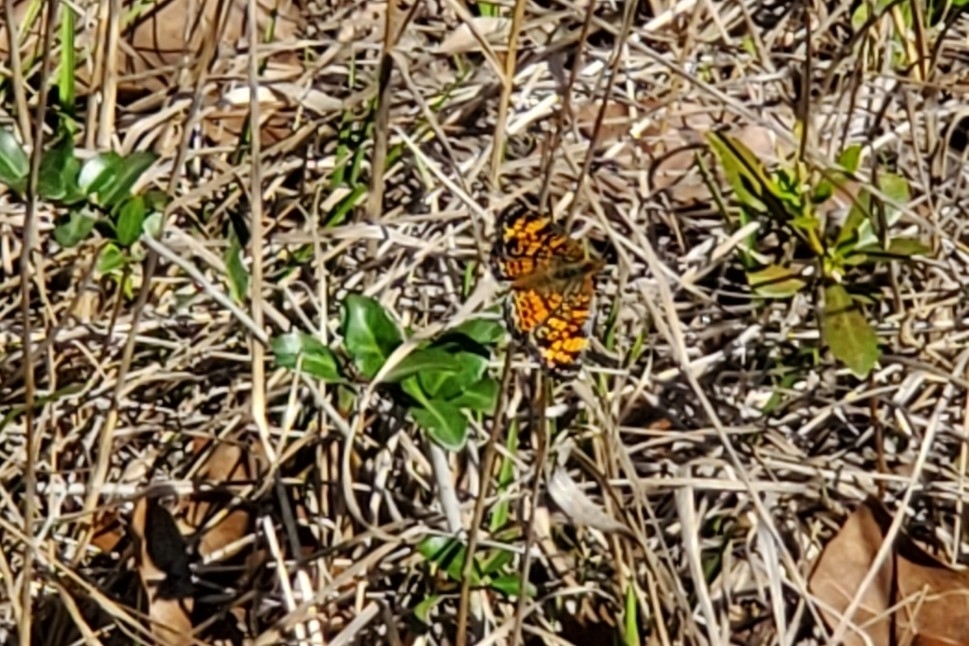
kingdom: Animalia
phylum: Arthropoda
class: Insecta
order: Lepidoptera
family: Nymphalidae
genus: Phyciodes
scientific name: Phyciodes tharos
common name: Pearl crescent
